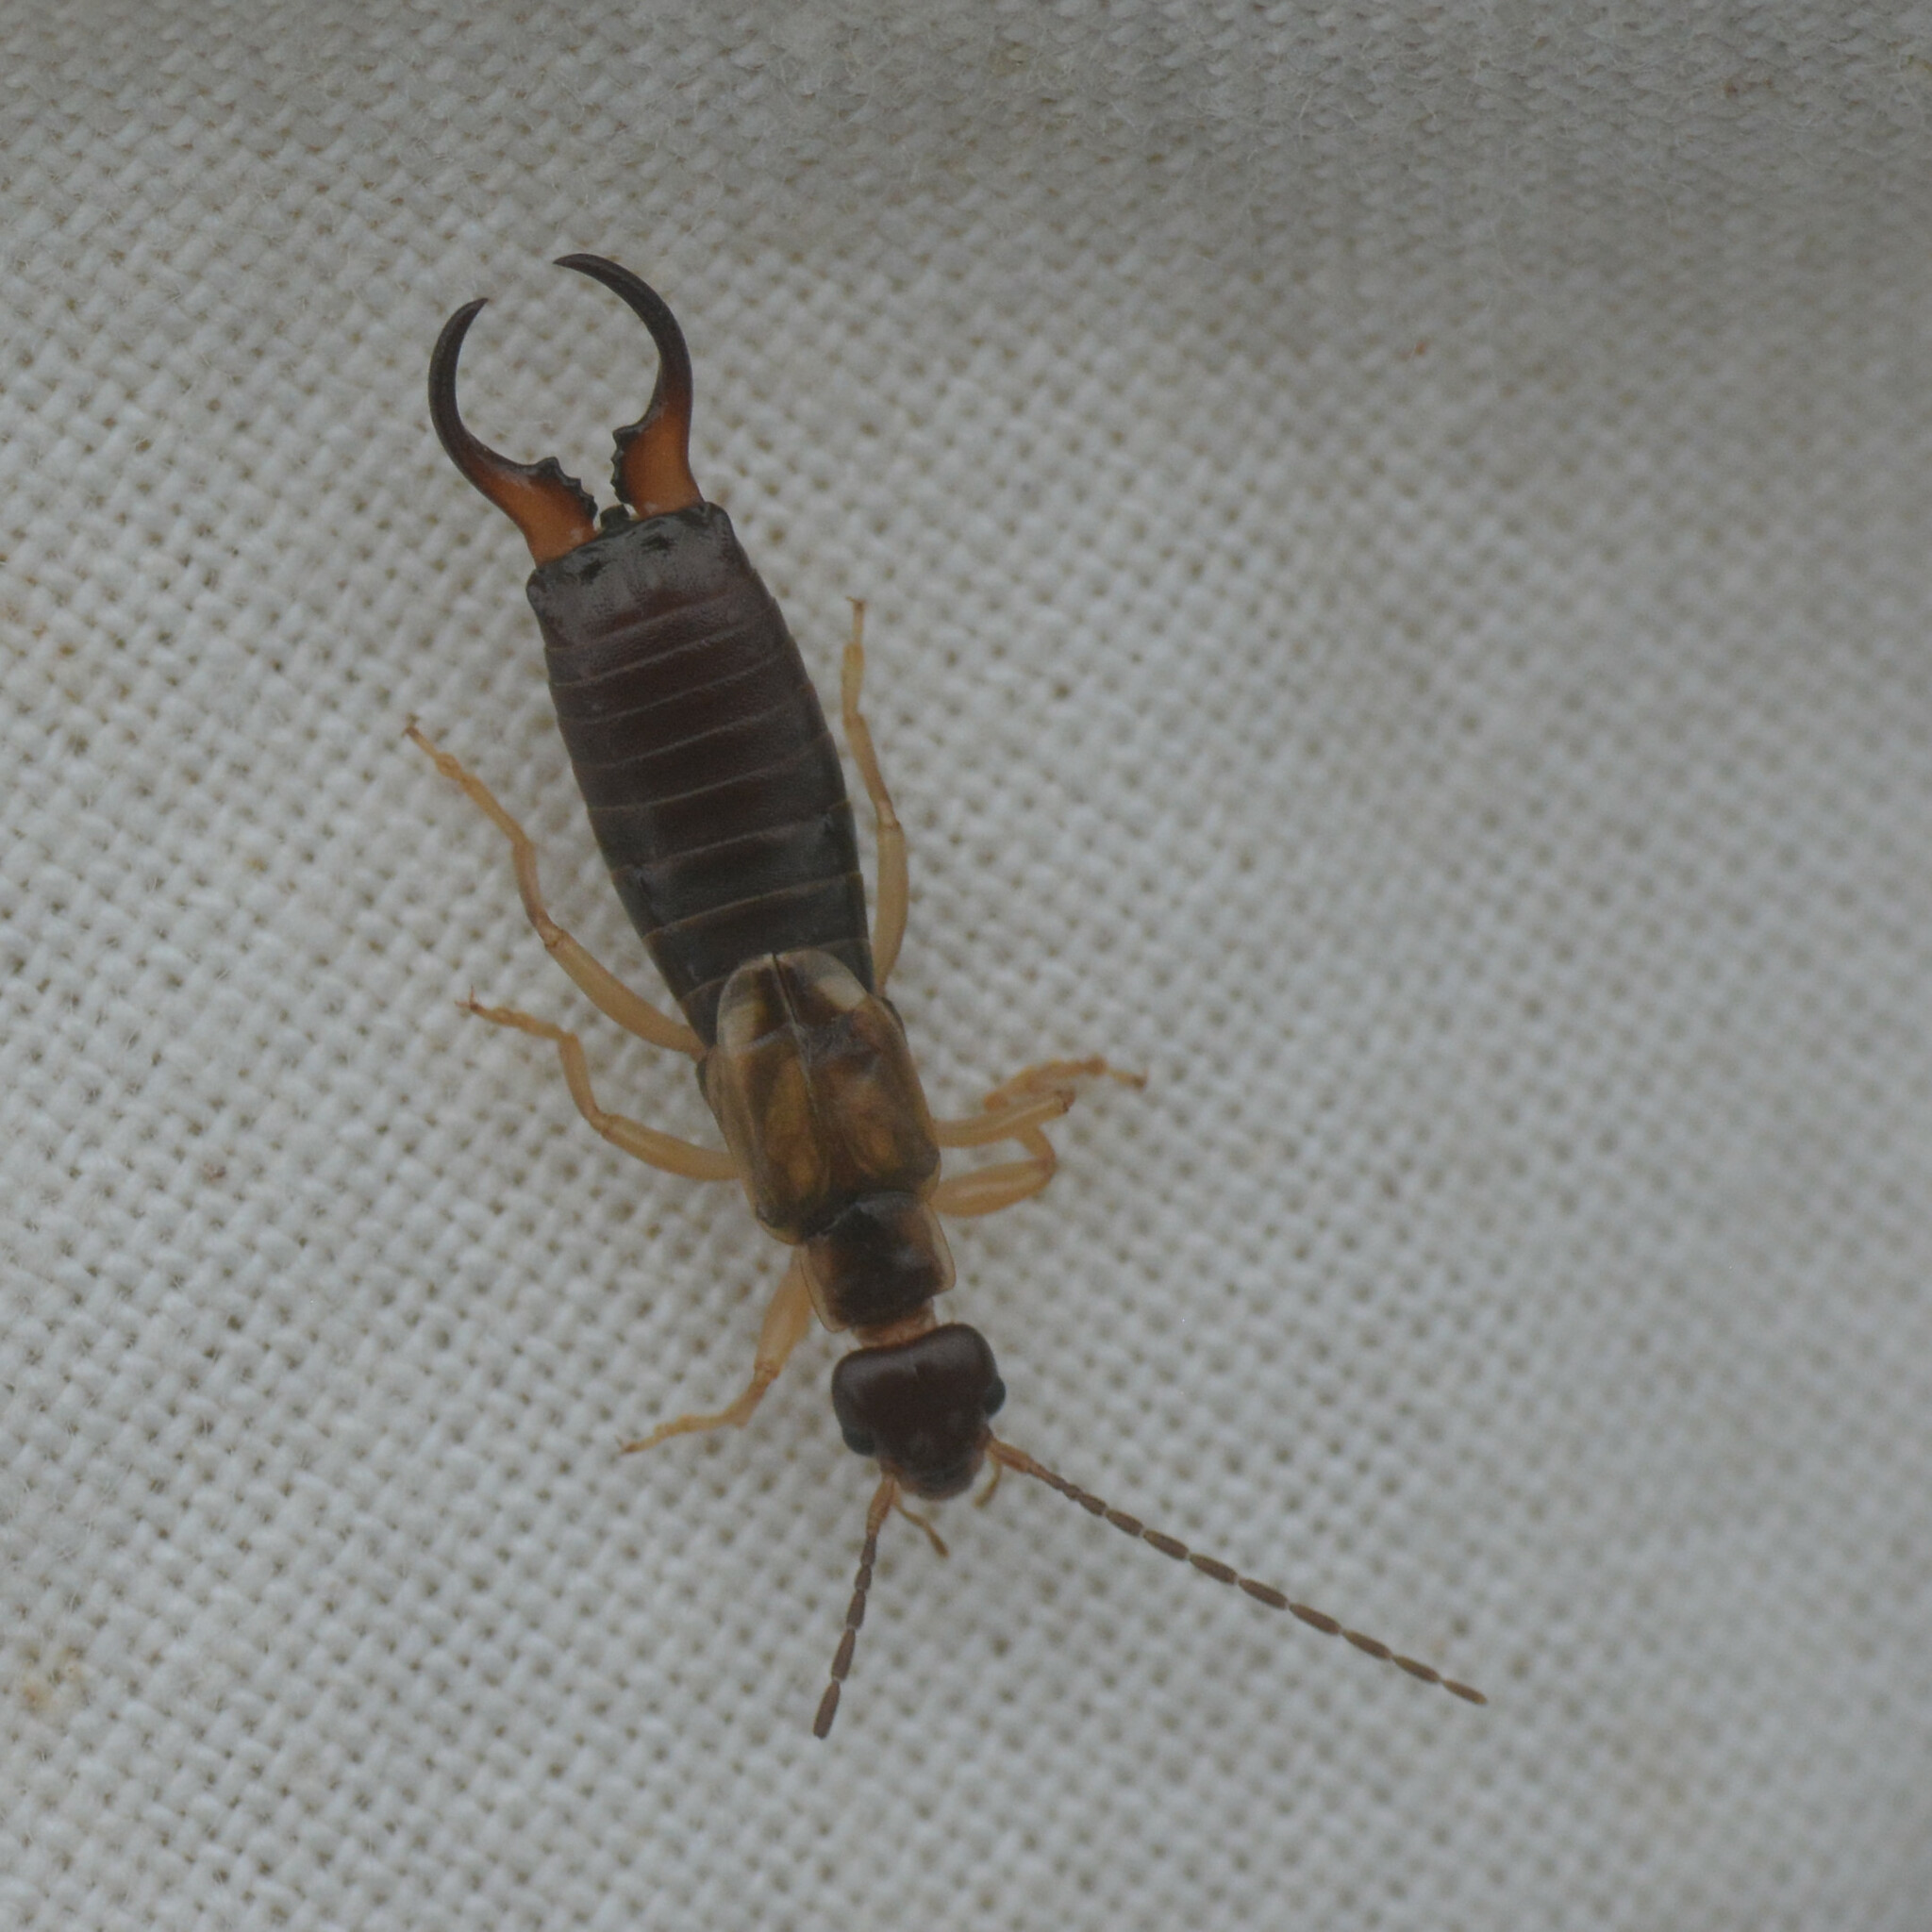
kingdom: Animalia
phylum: Arthropoda
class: Insecta
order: Dermaptera
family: Forficulidae
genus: Forficula
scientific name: Forficula
